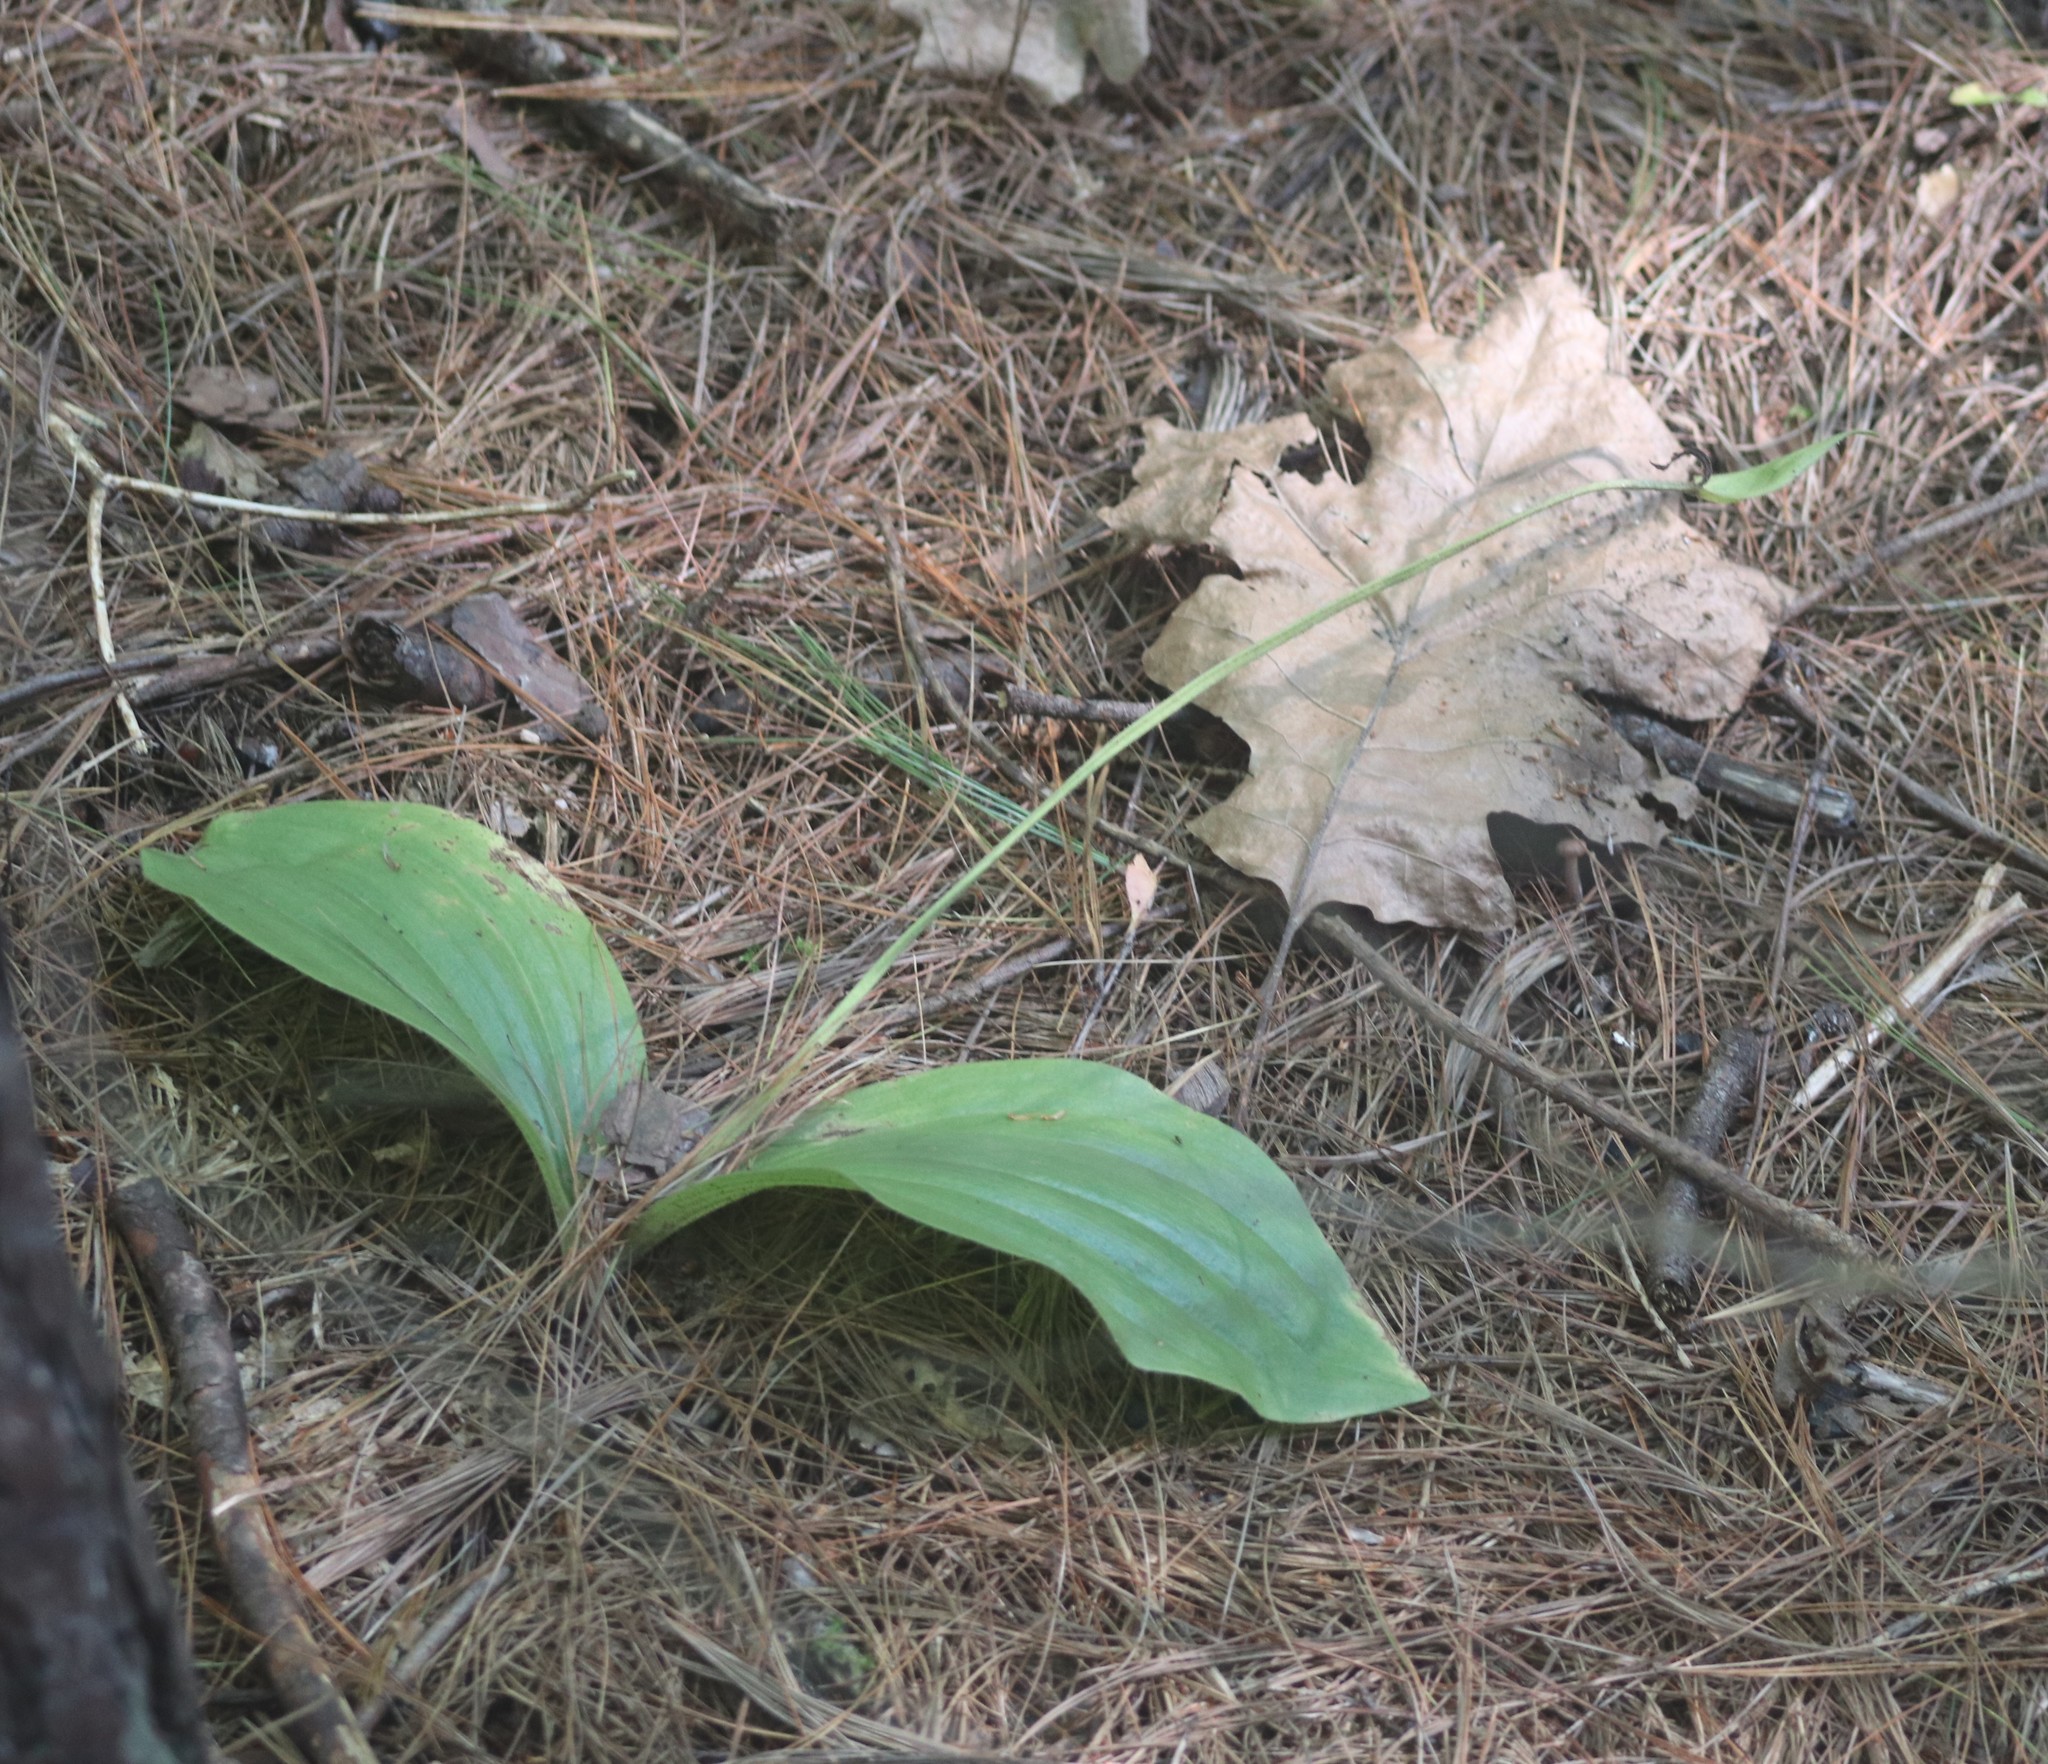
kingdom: Plantae
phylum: Tracheophyta
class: Liliopsida
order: Asparagales
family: Orchidaceae
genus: Cypripedium
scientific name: Cypripedium acaule
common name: Pink lady's-slipper
